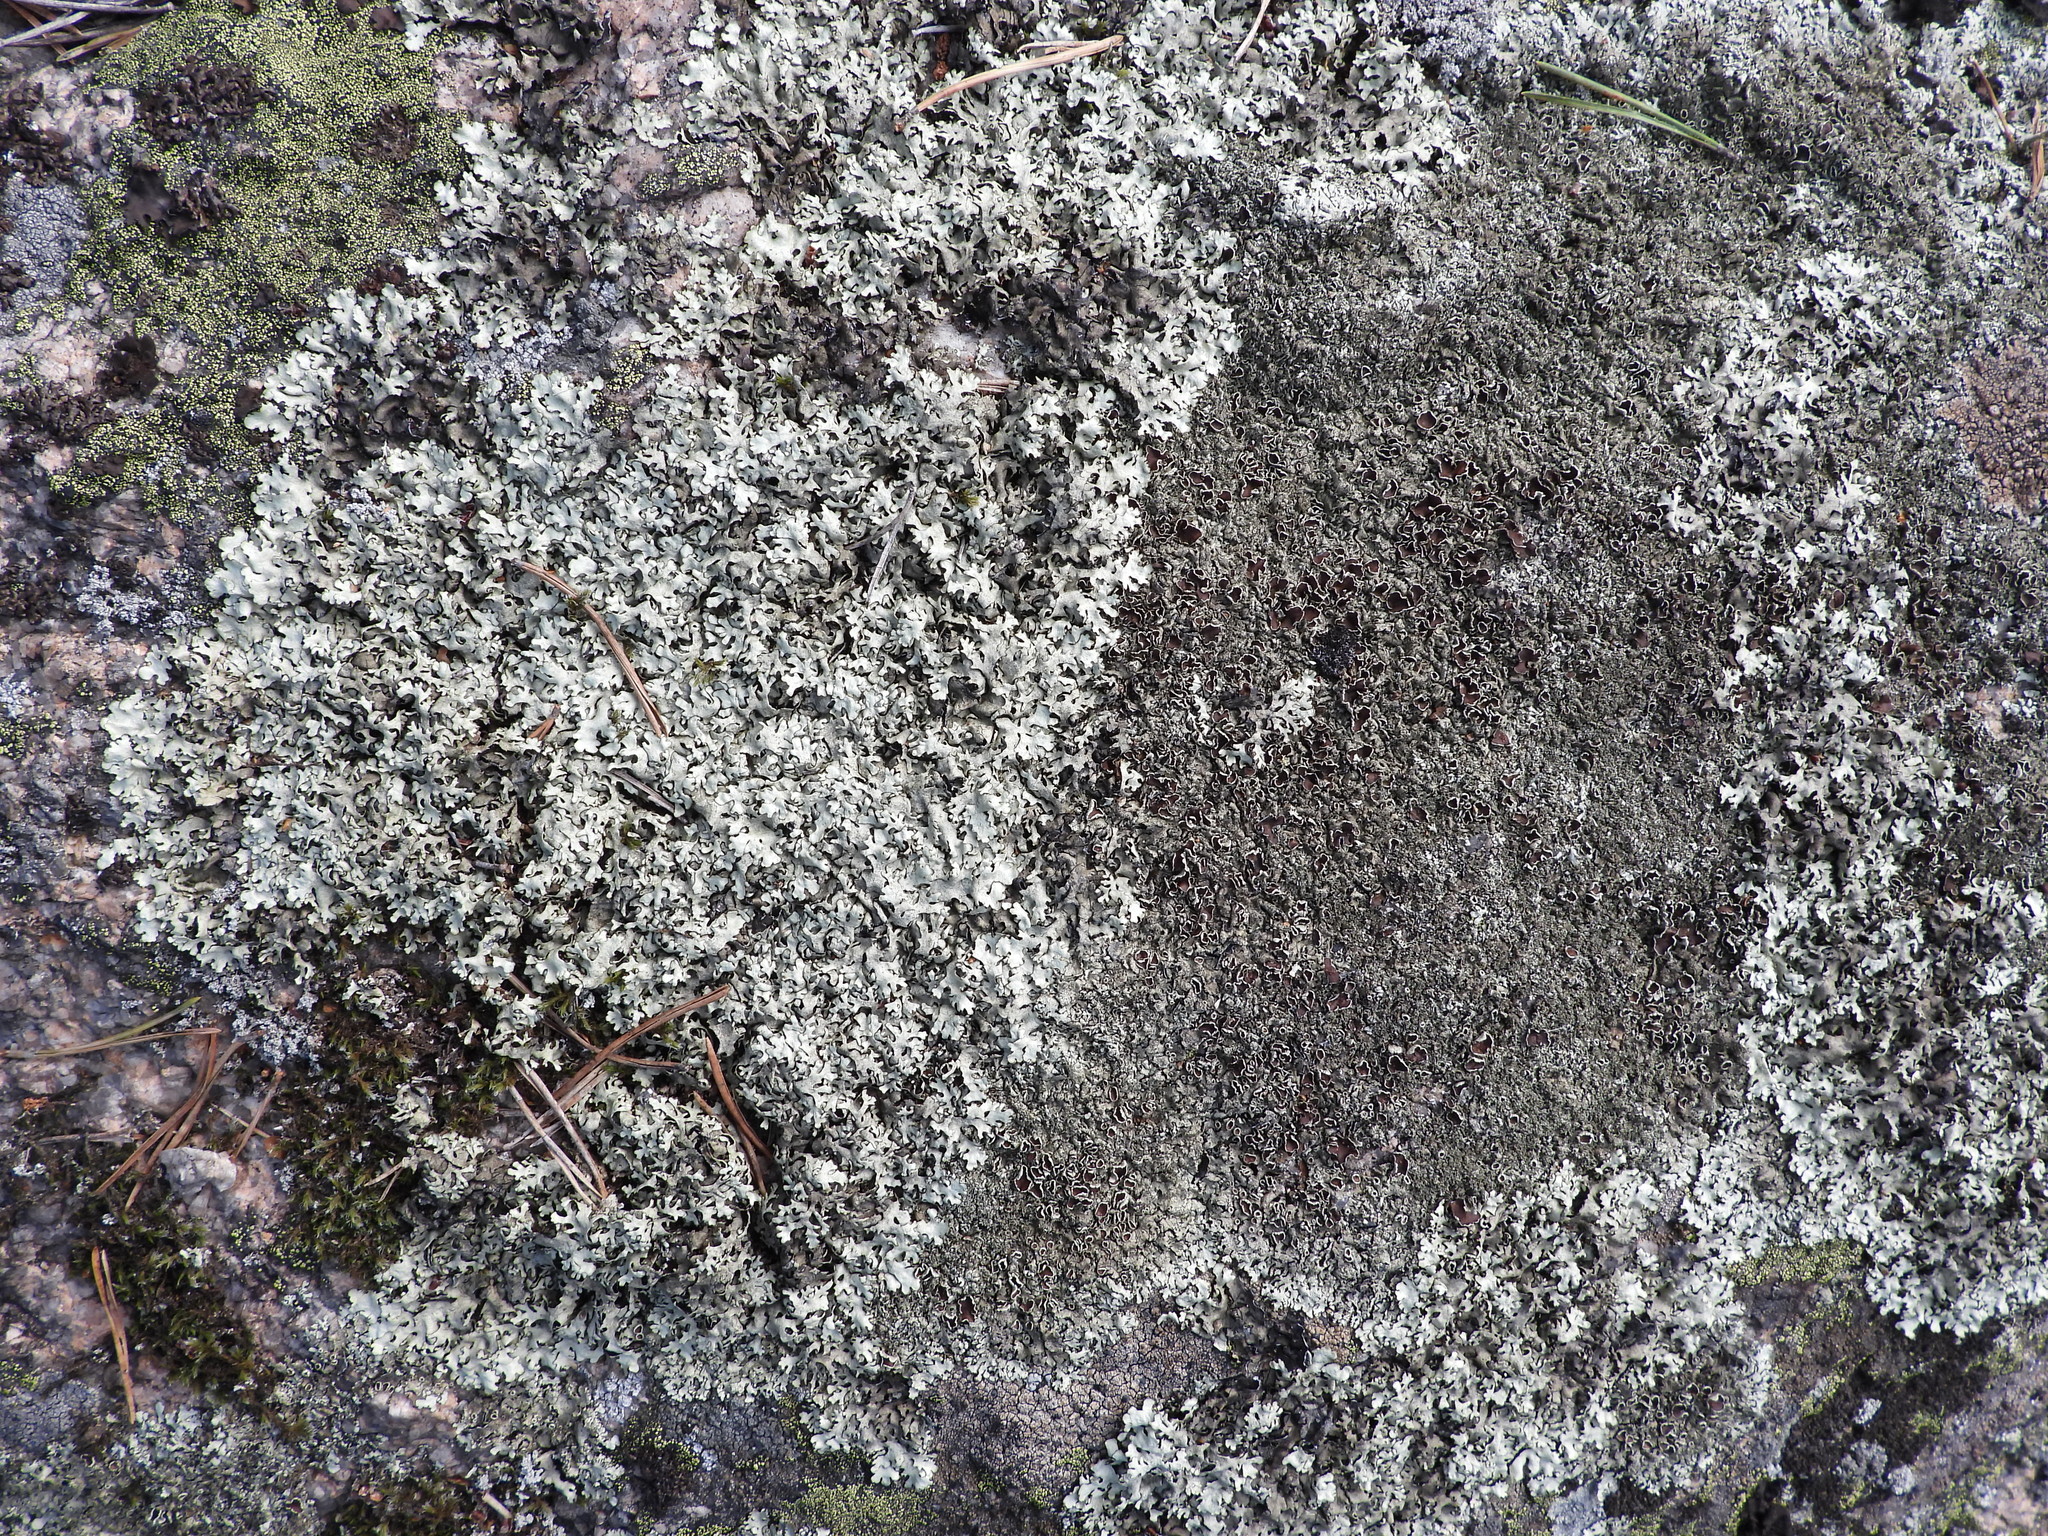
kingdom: Fungi
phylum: Ascomycota
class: Lecanoromycetes
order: Lecanorales
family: Parmeliaceae
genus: Xanthoparmelia
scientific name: Xanthoparmelia conspersa
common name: Peppered rock shield
